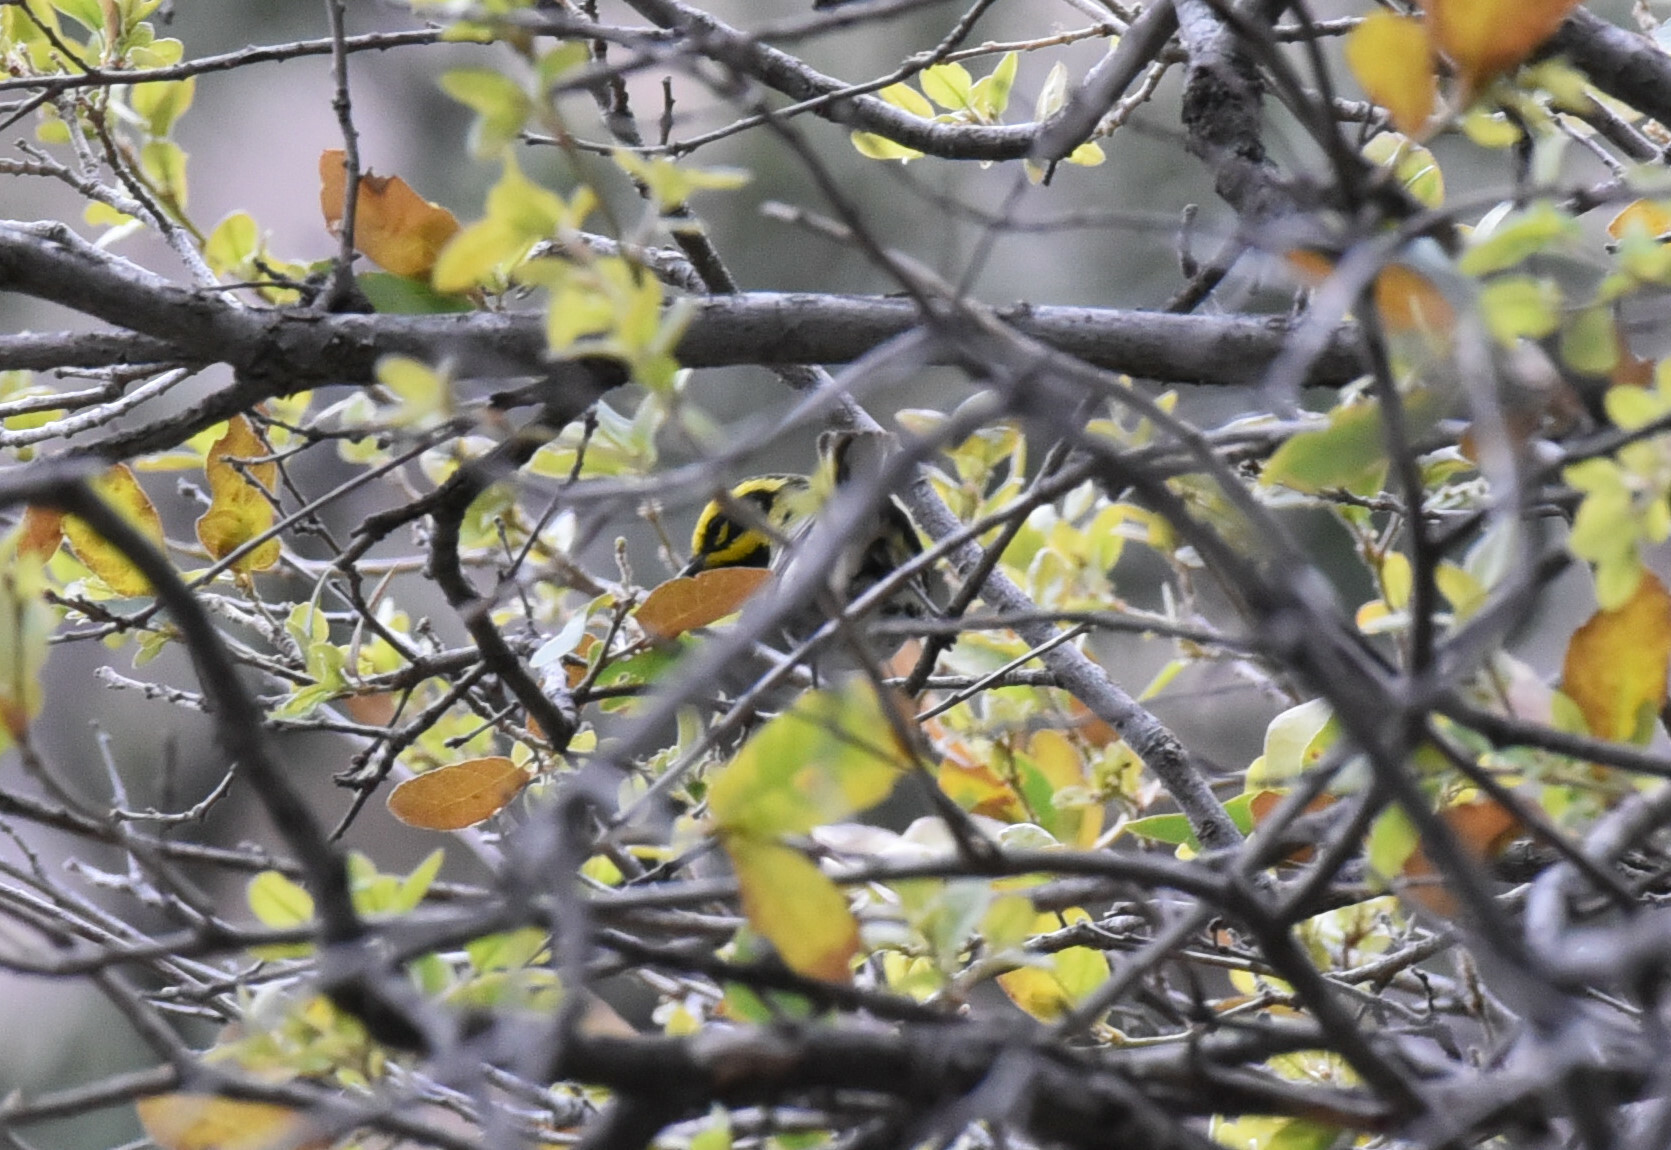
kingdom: Animalia
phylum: Chordata
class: Aves
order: Passeriformes
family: Parulidae
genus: Setophaga
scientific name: Setophaga townsendi
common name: Townsend's warbler
